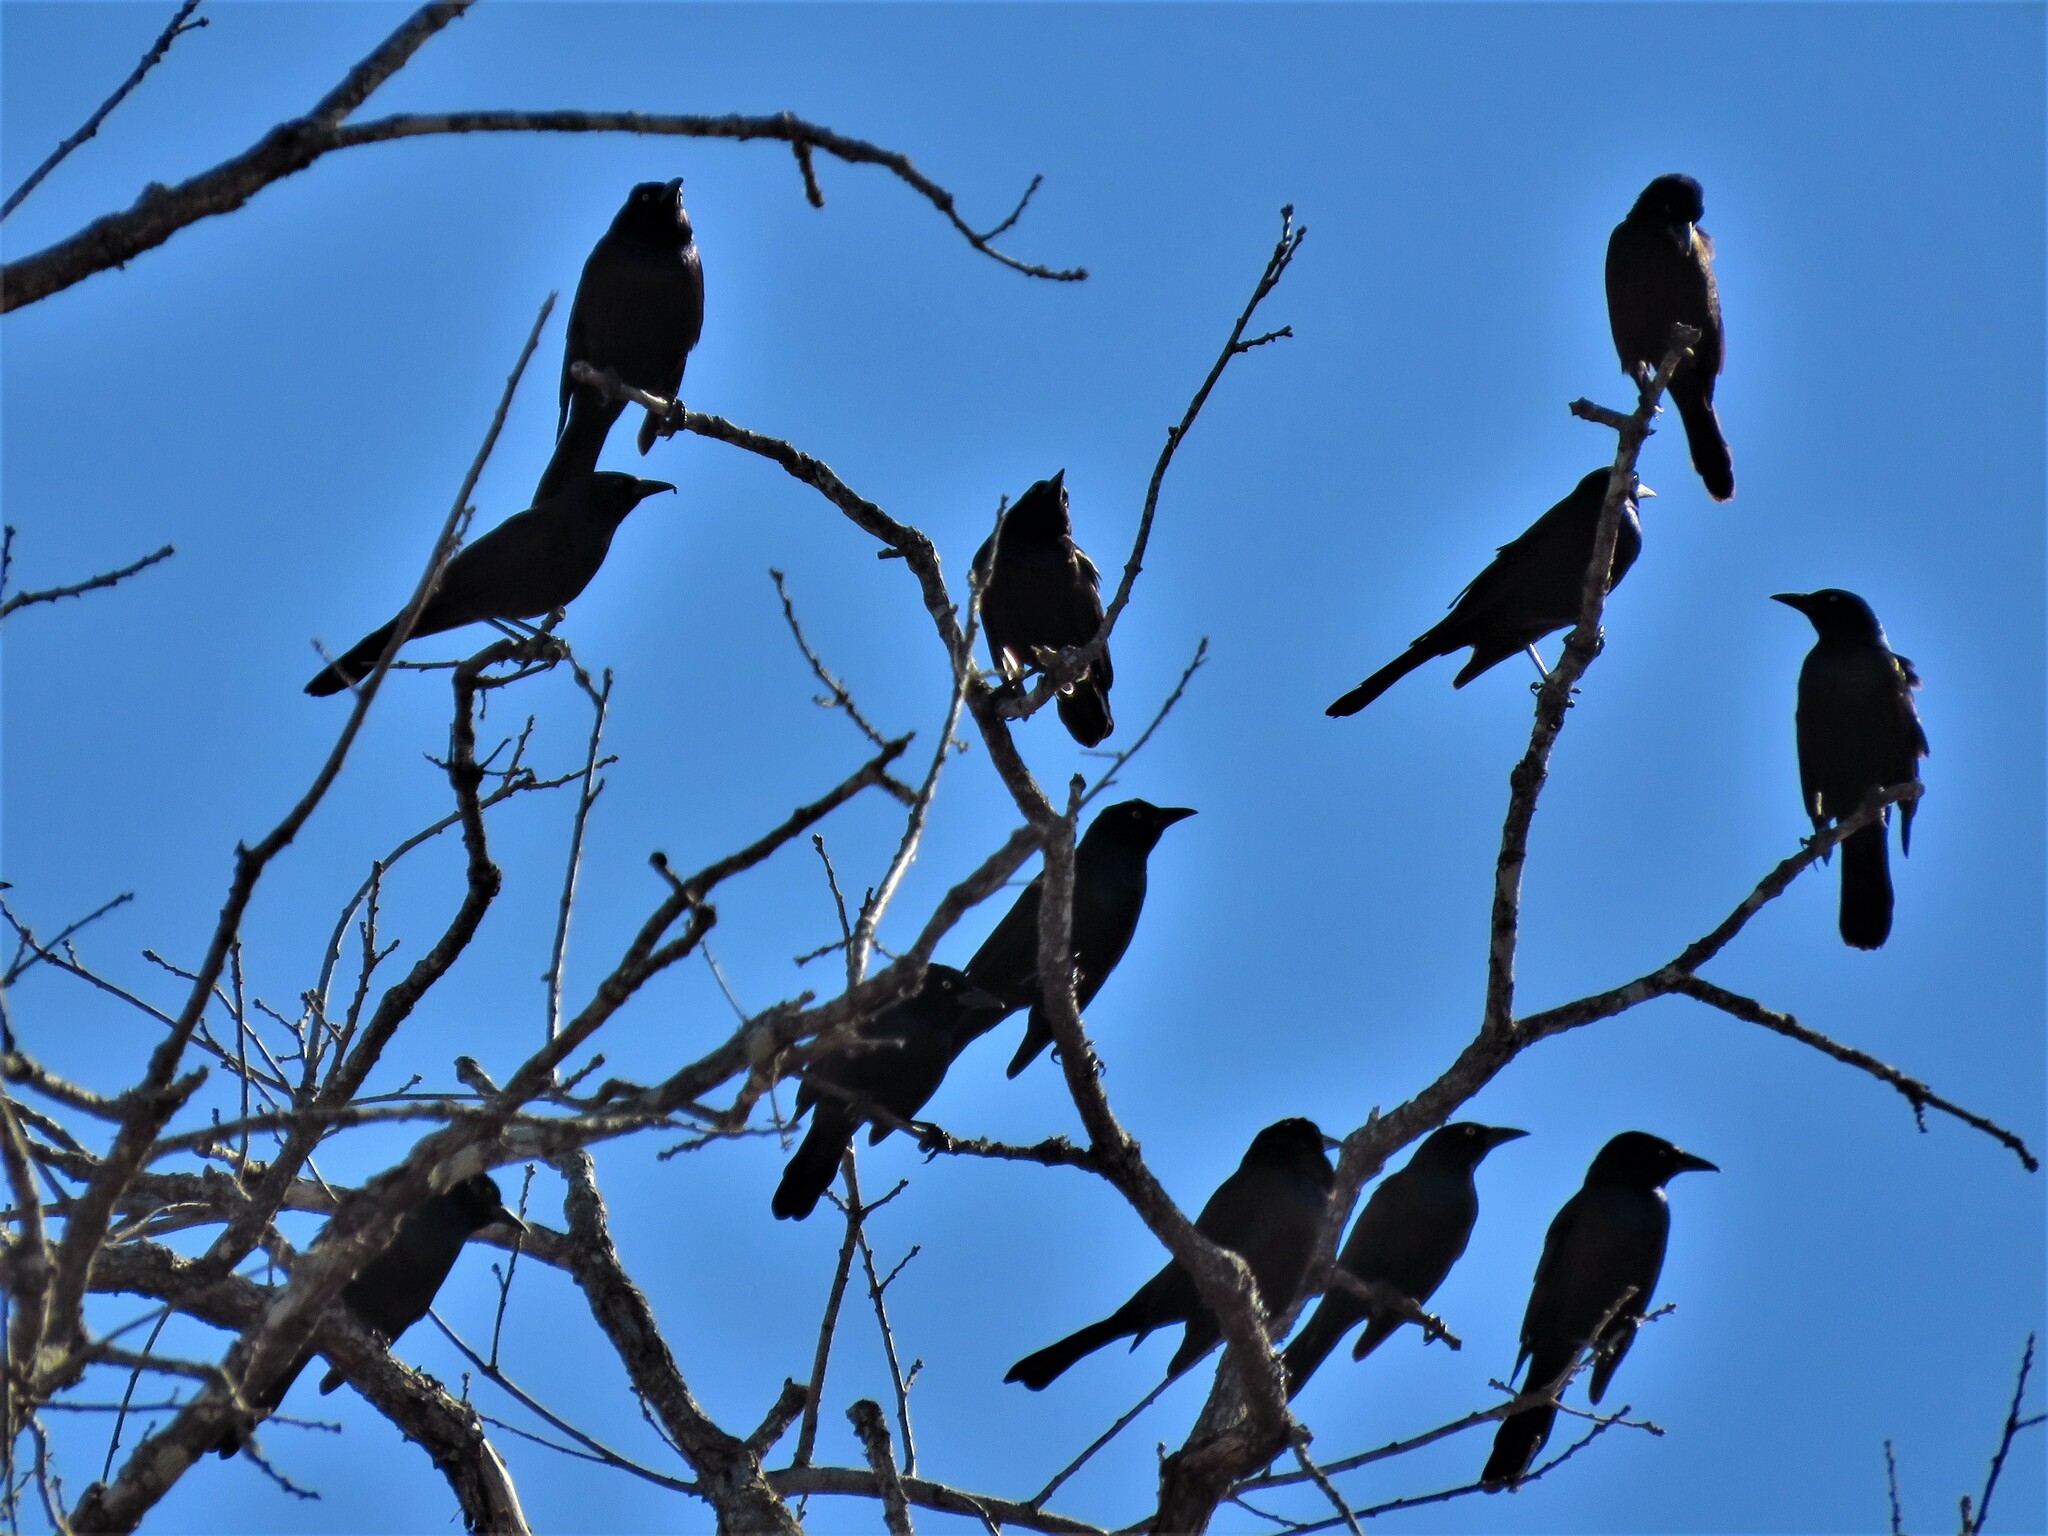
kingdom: Animalia
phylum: Chordata
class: Aves
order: Passeriformes
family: Icteridae
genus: Quiscalus
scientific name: Quiscalus quiscula
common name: Common grackle
